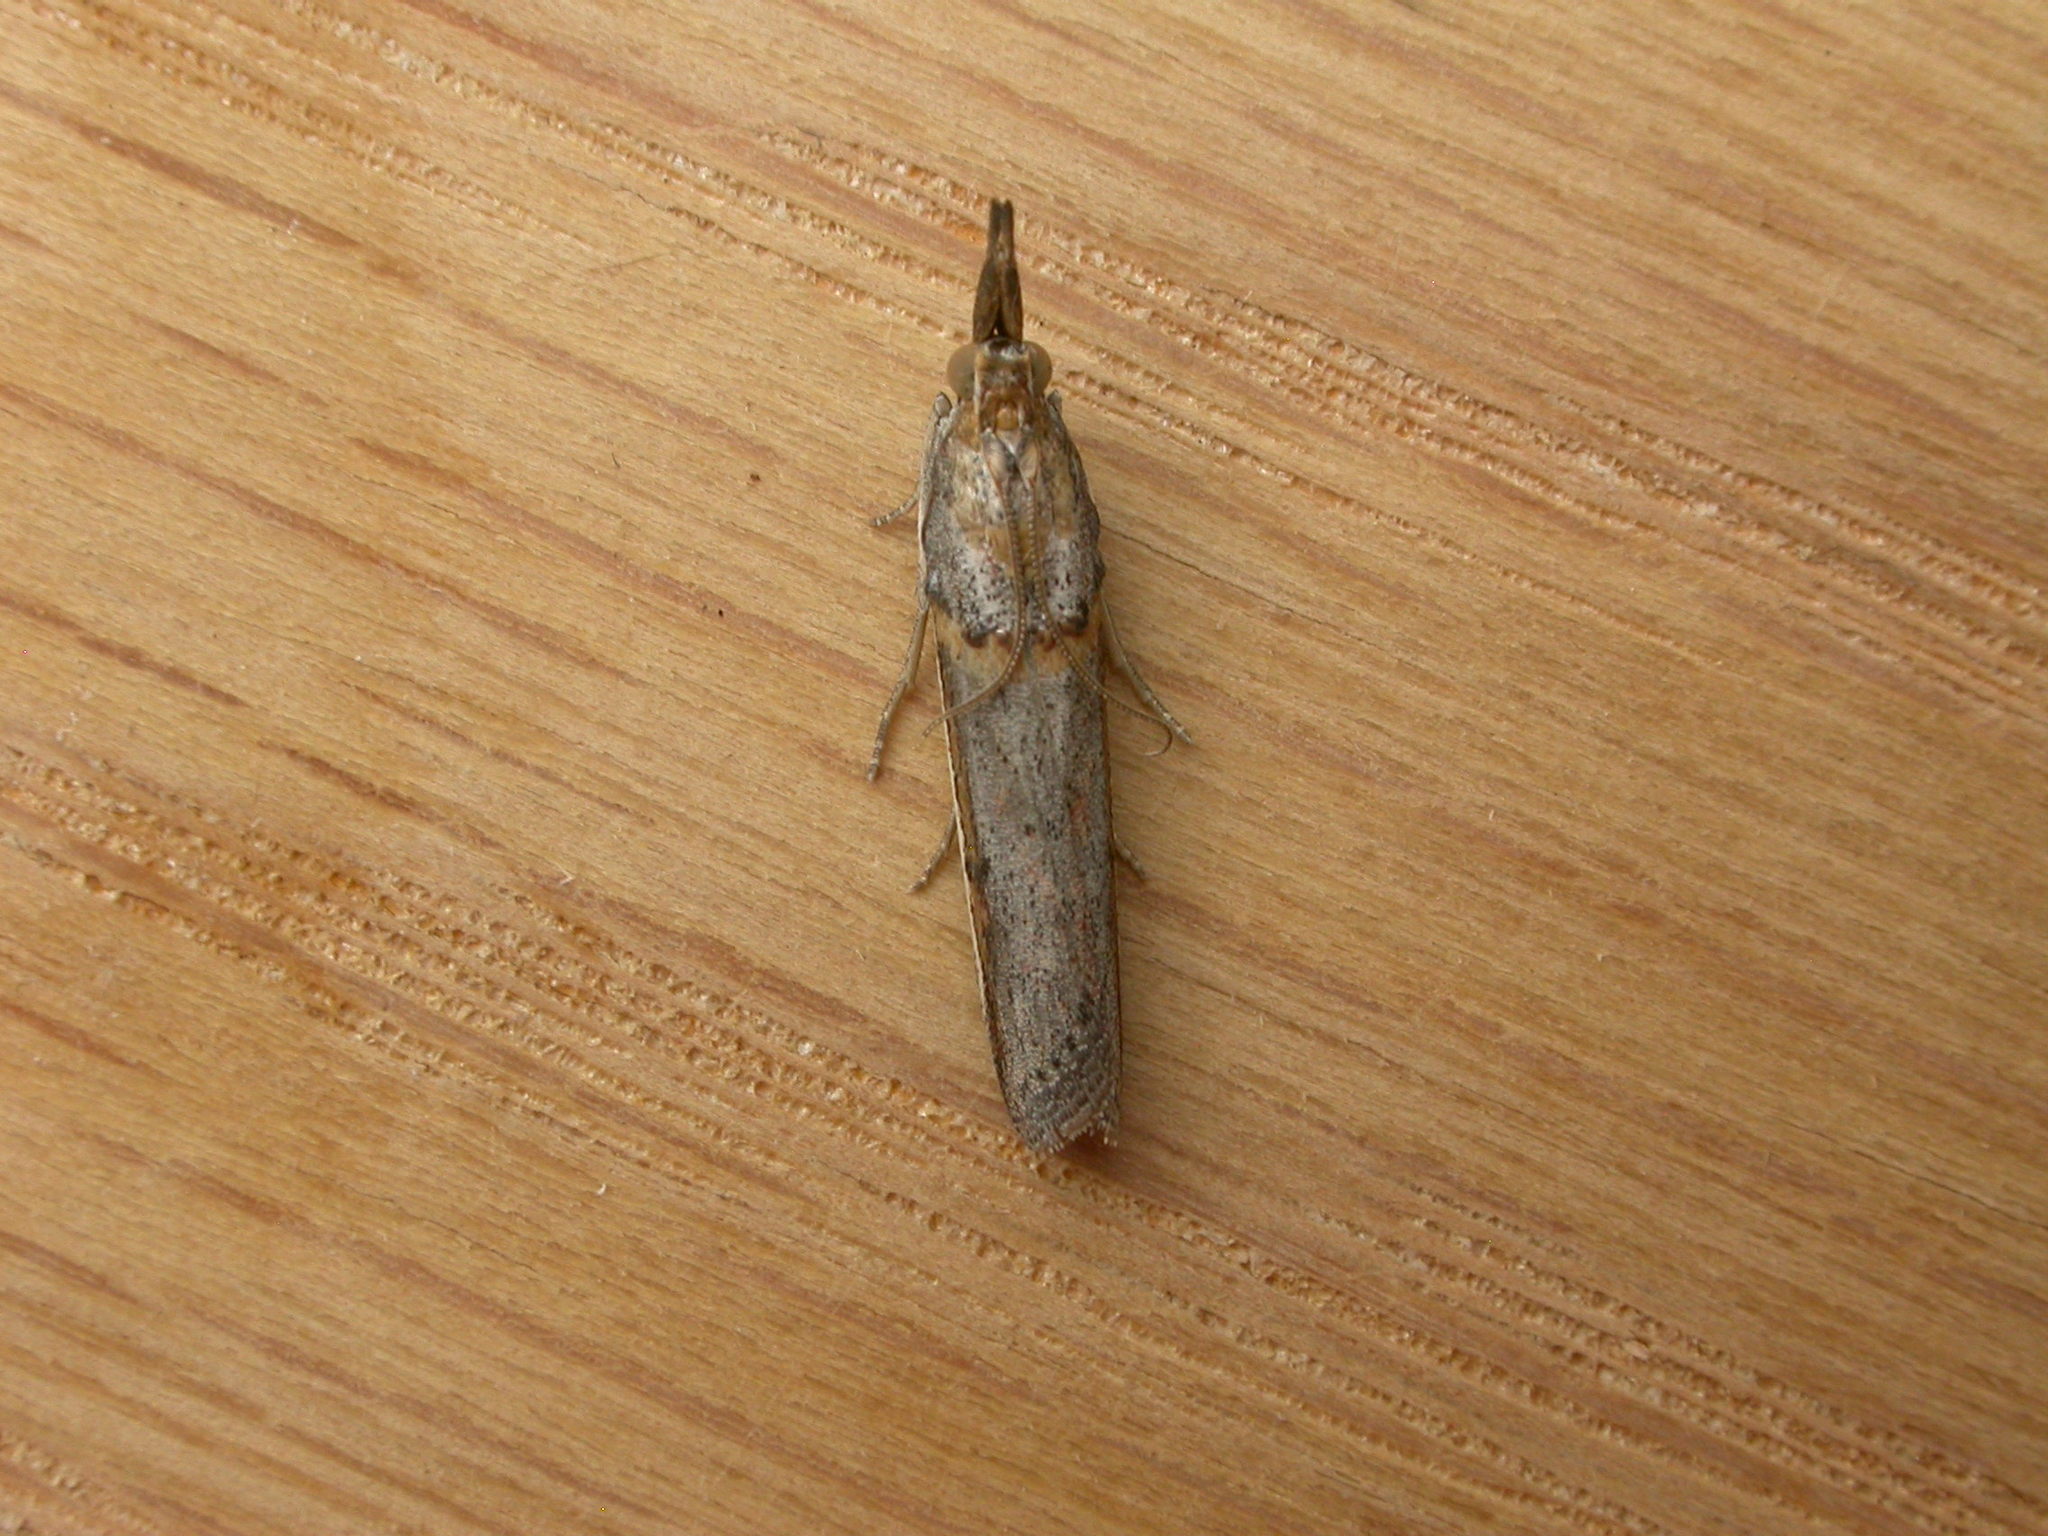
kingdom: Animalia
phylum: Arthropoda
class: Insecta
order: Lepidoptera
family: Pyralidae
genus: Etiella
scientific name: Etiella behrii
